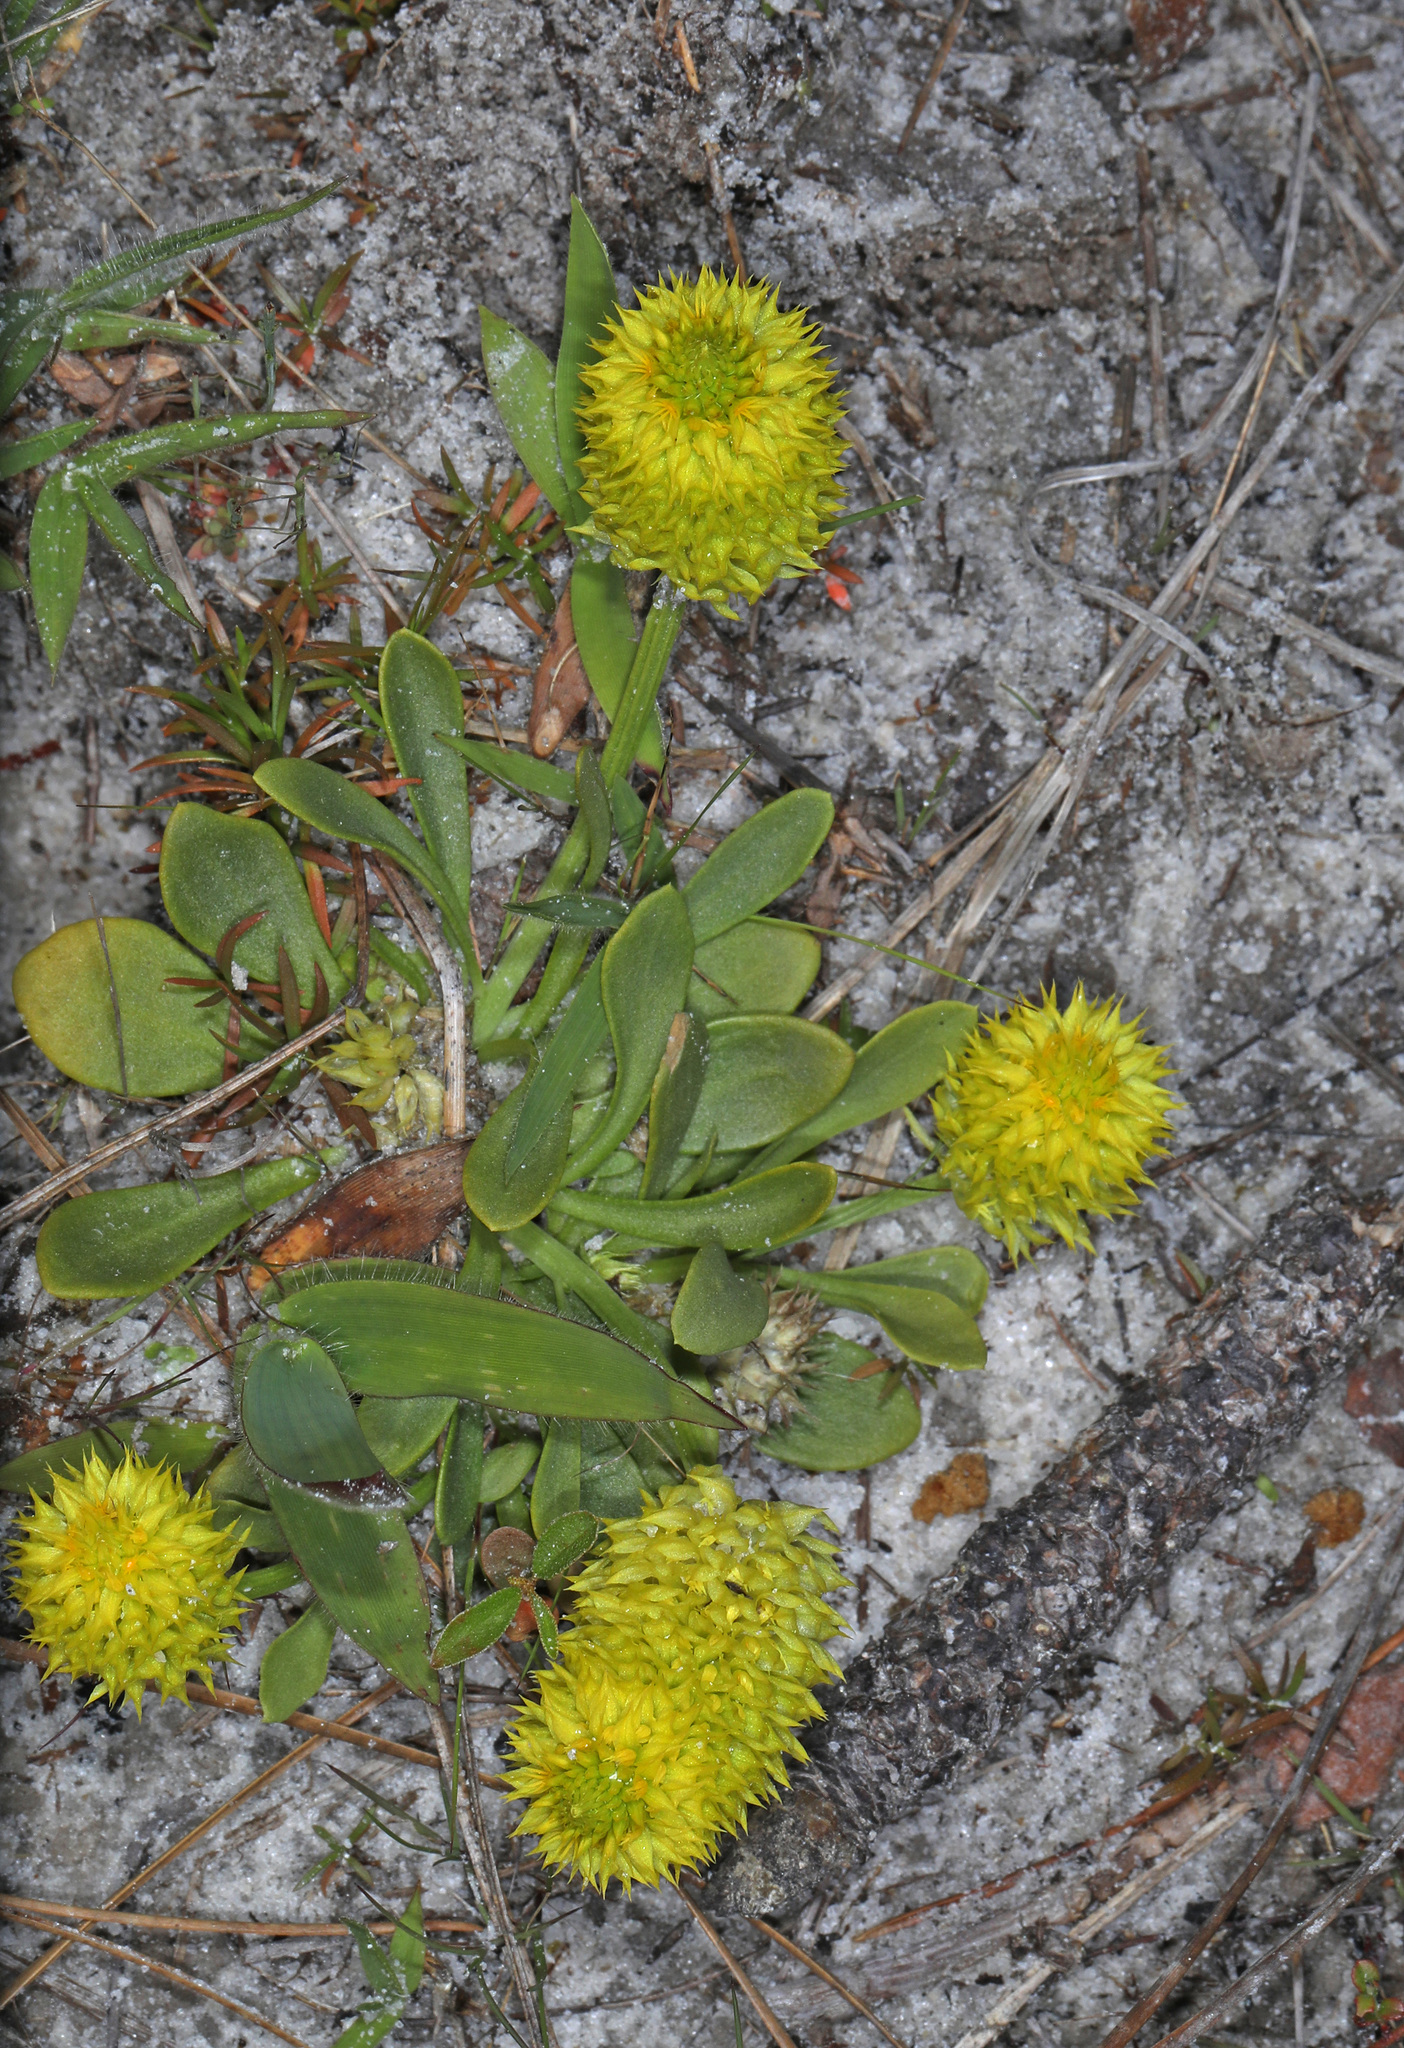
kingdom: Plantae
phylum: Tracheophyta
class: Magnoliopsida
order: Fabales
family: Polygalaceae
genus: Polygala
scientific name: Polygala nana
